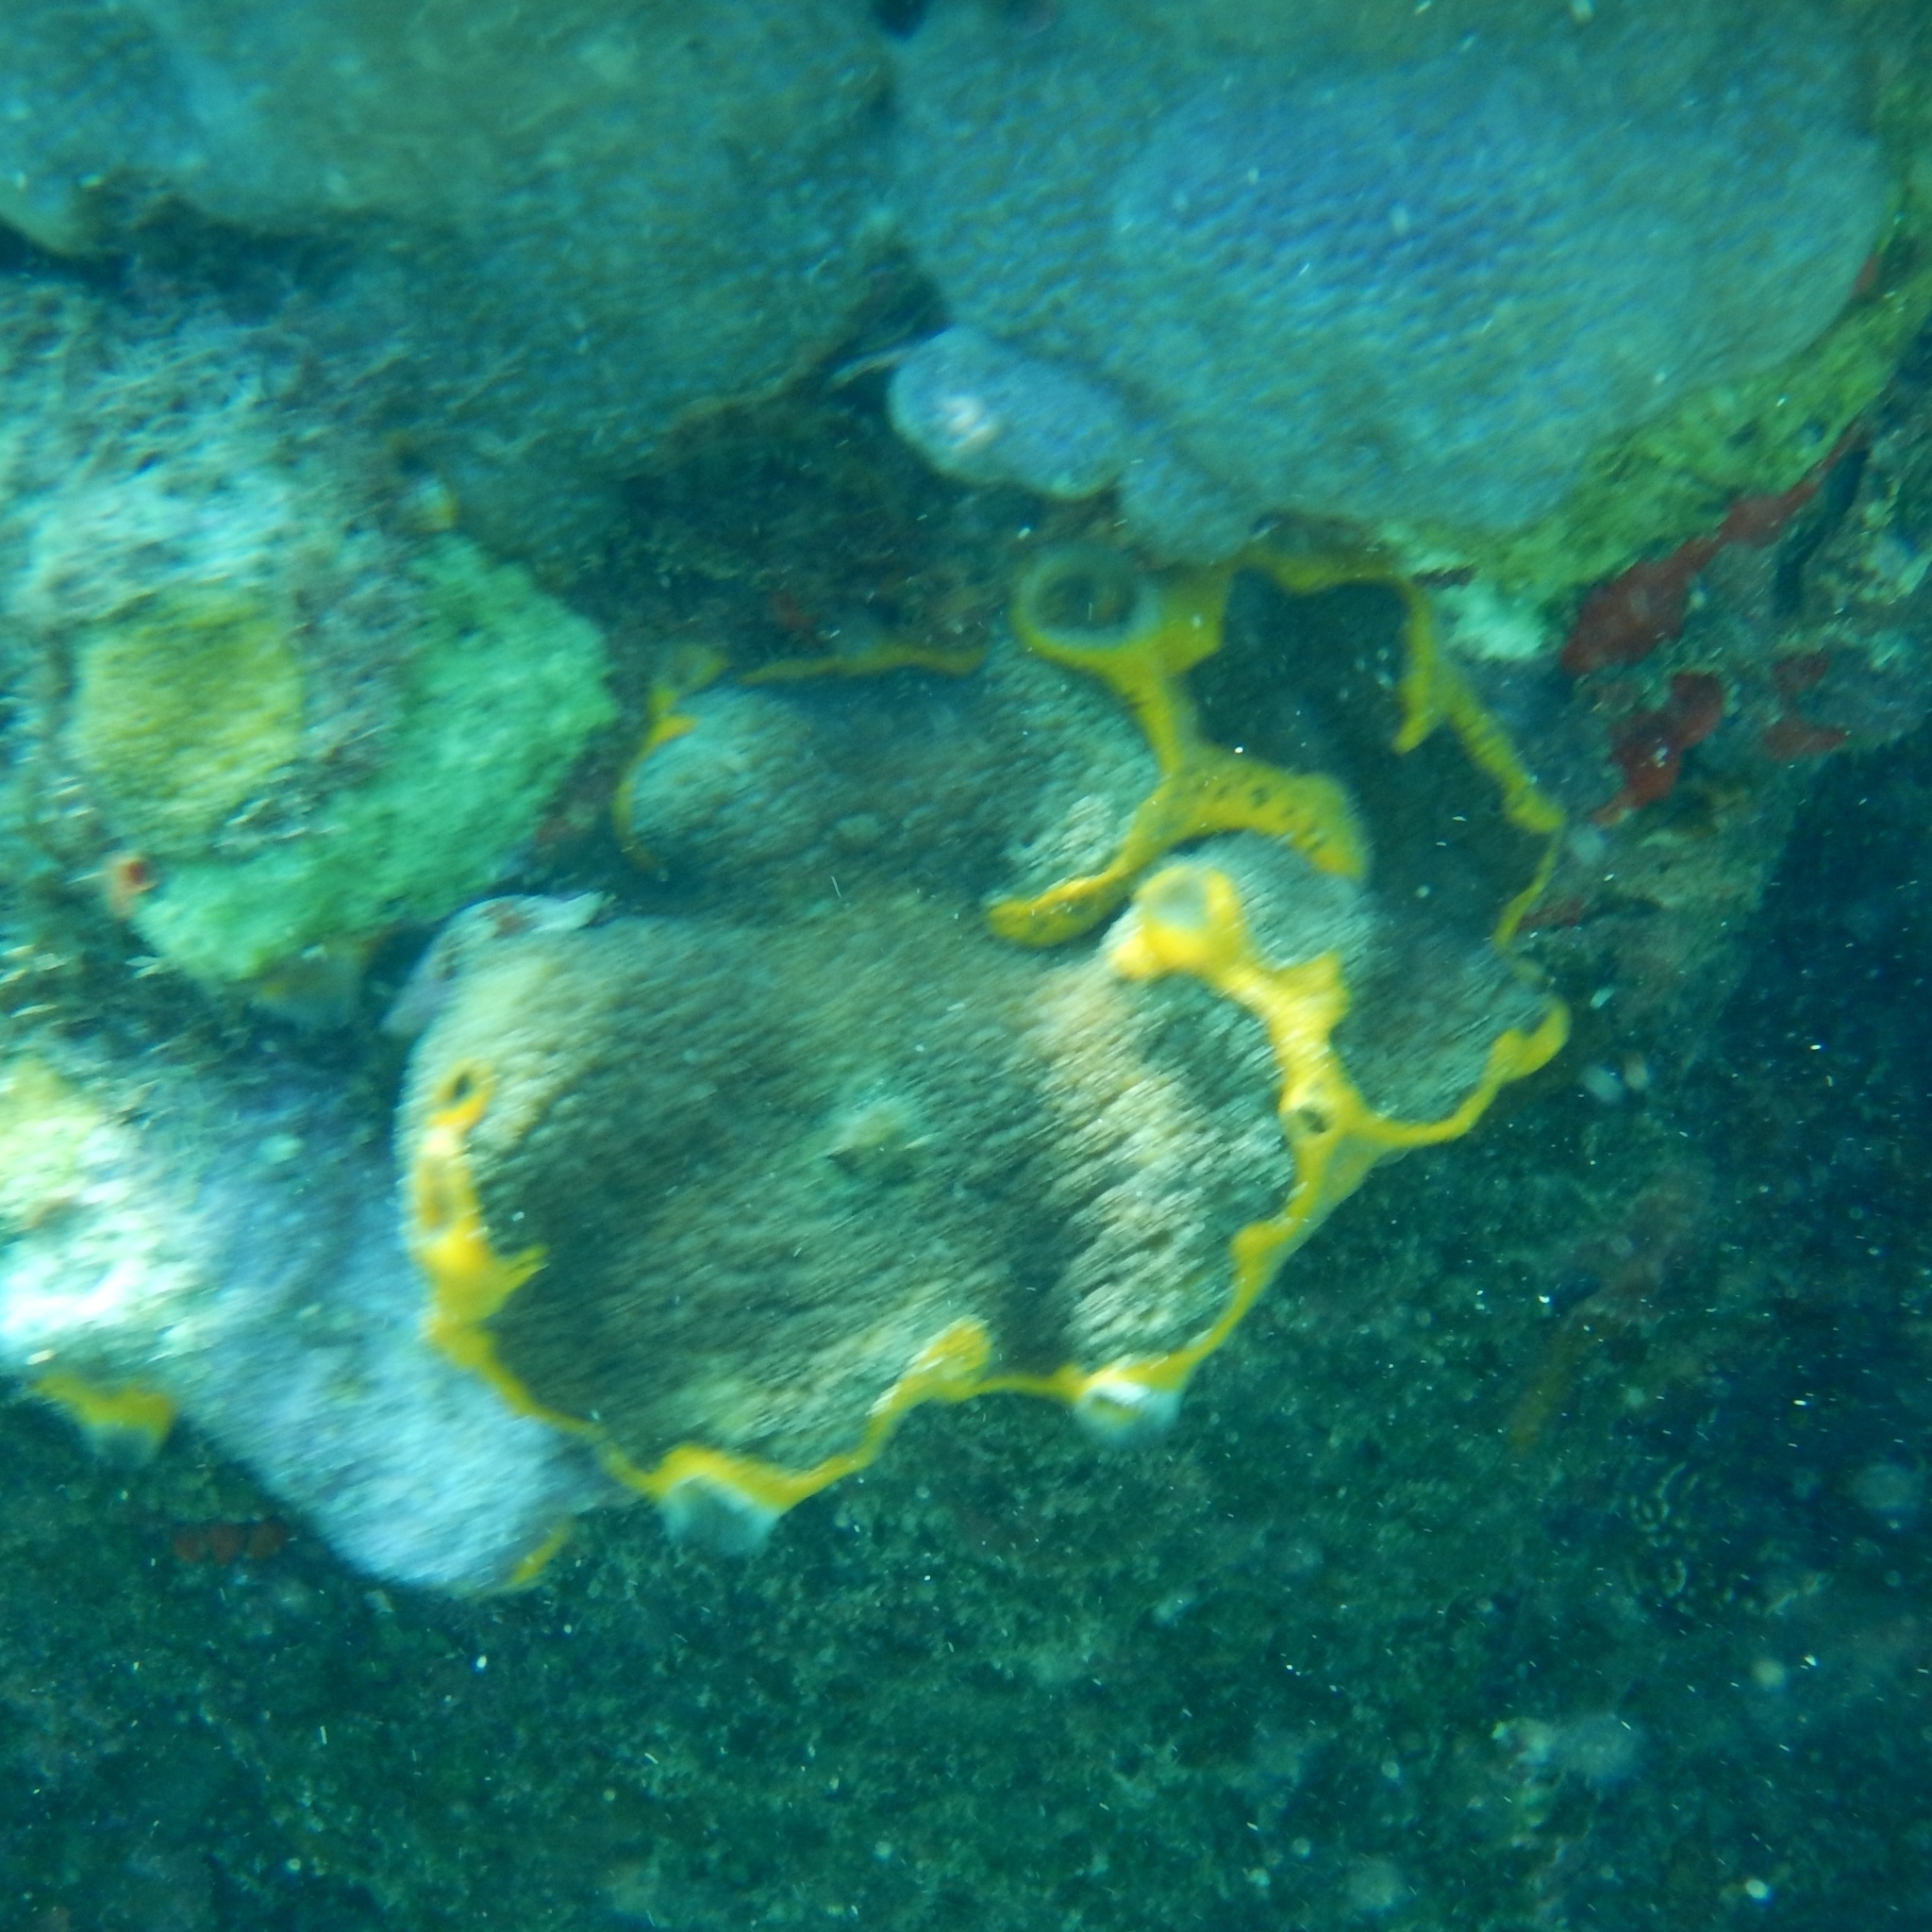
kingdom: Animalia
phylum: Porifera
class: Demospongiae
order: Poecilosclerida
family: Mycalidae
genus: Mycale
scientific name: Mycale laevis
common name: Orange icing sponge
